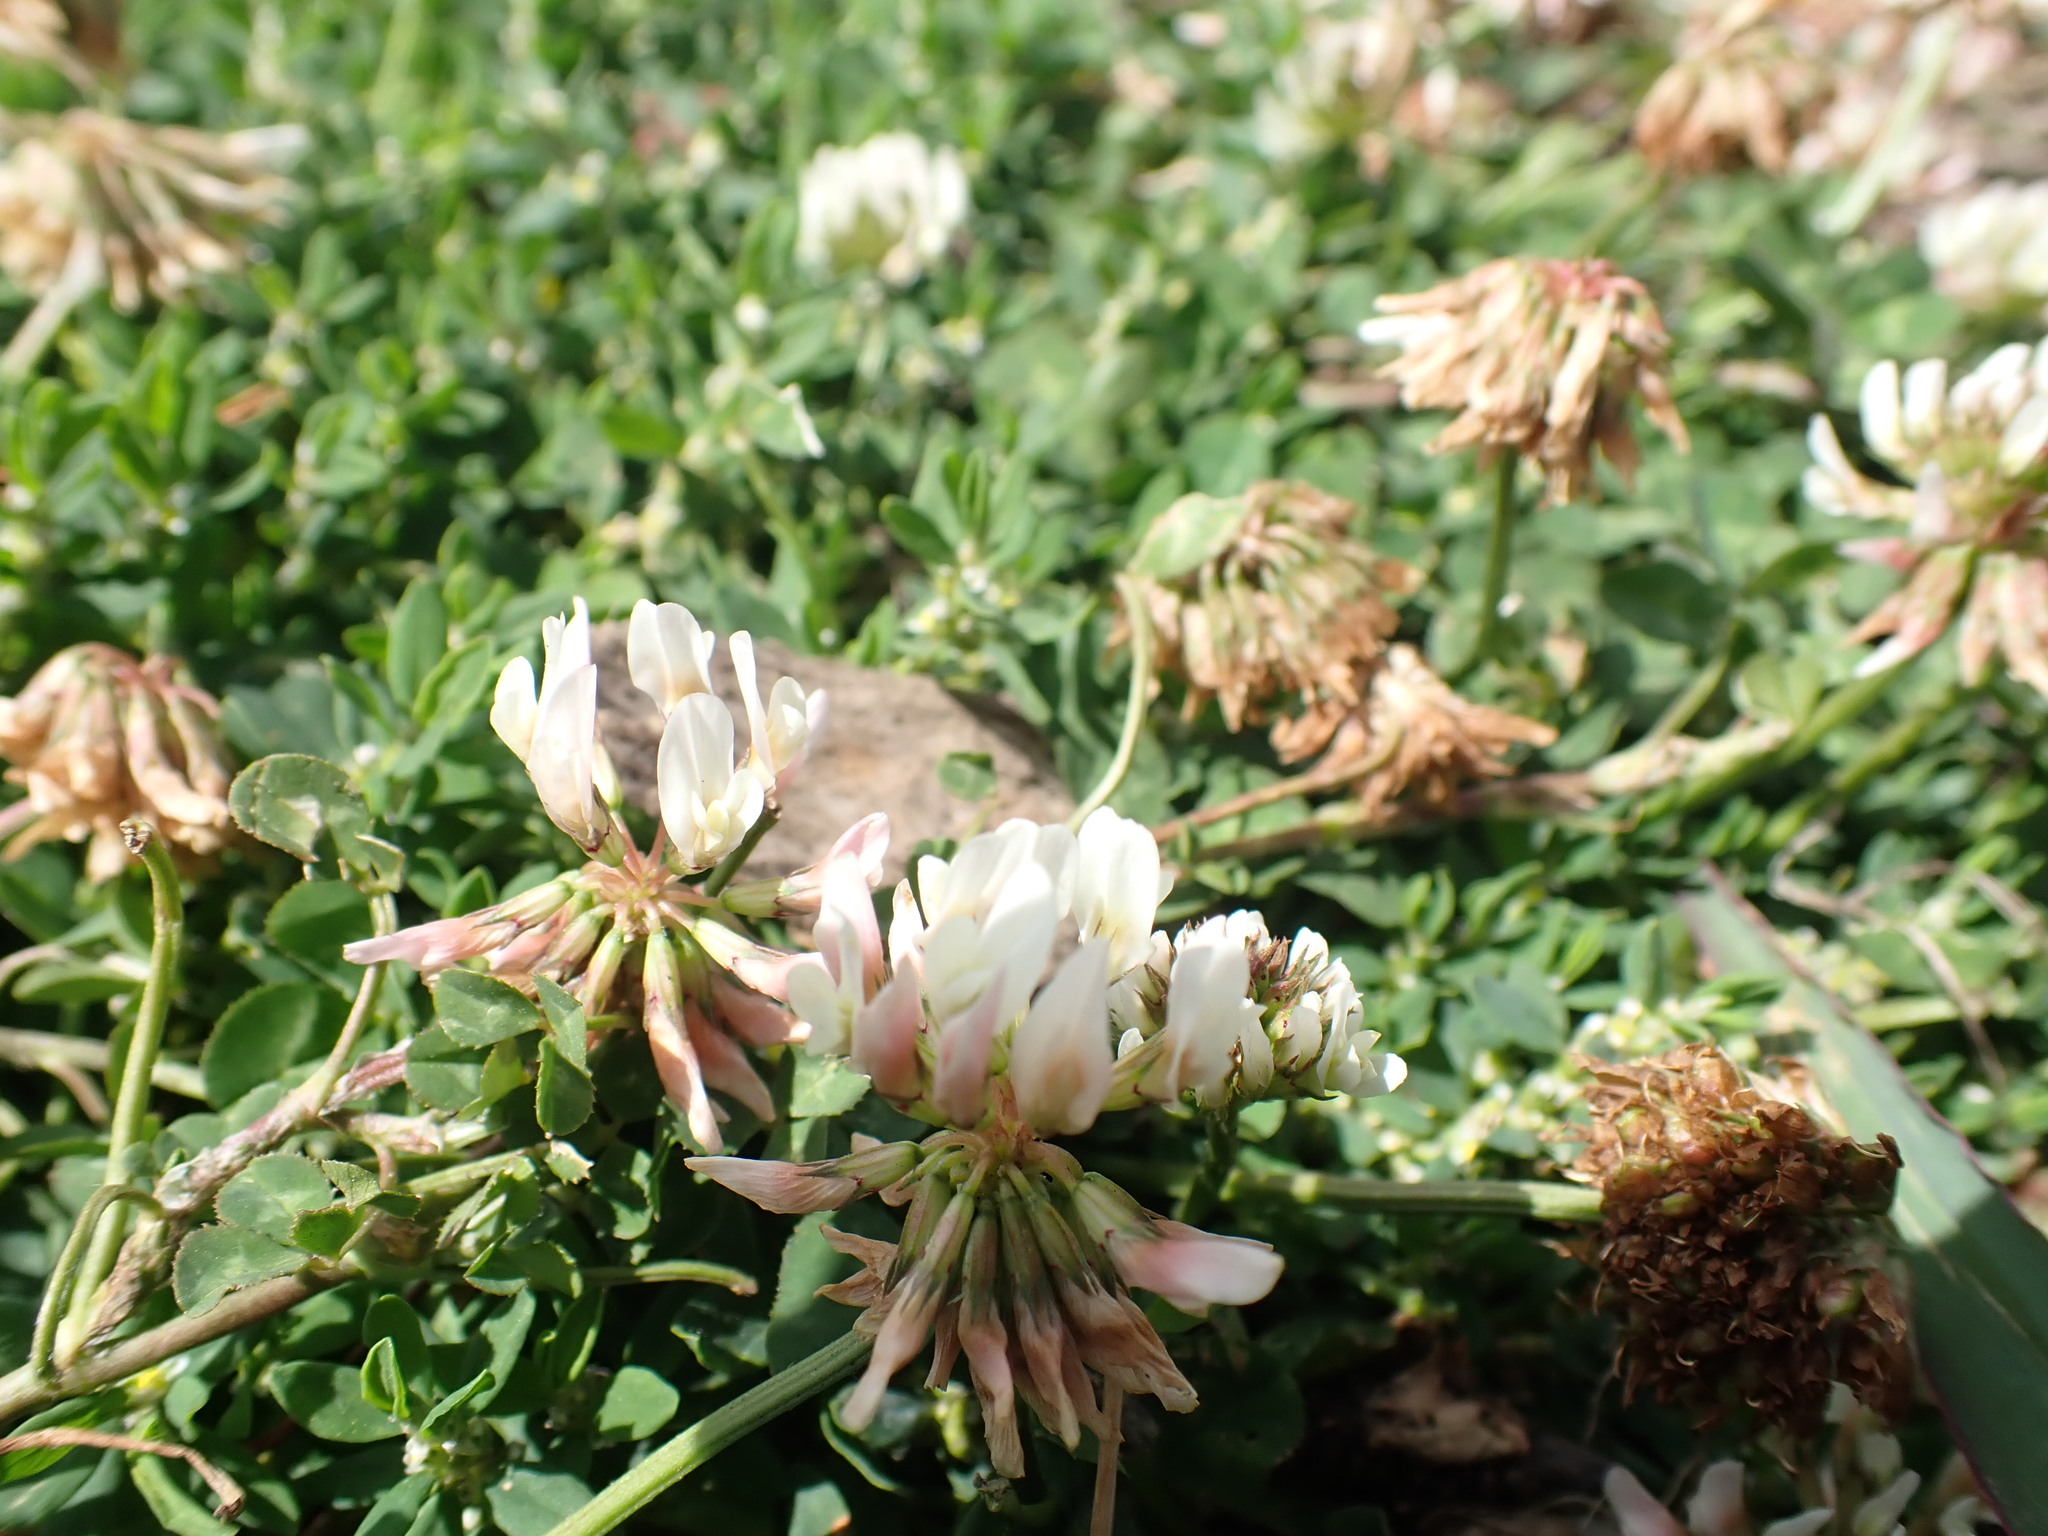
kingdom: Plantae
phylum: Tracheophyta
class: Magnoliopsida
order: Fabales
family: Fabaceae
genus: Trifolium
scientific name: Trifolium repens
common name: White clover
